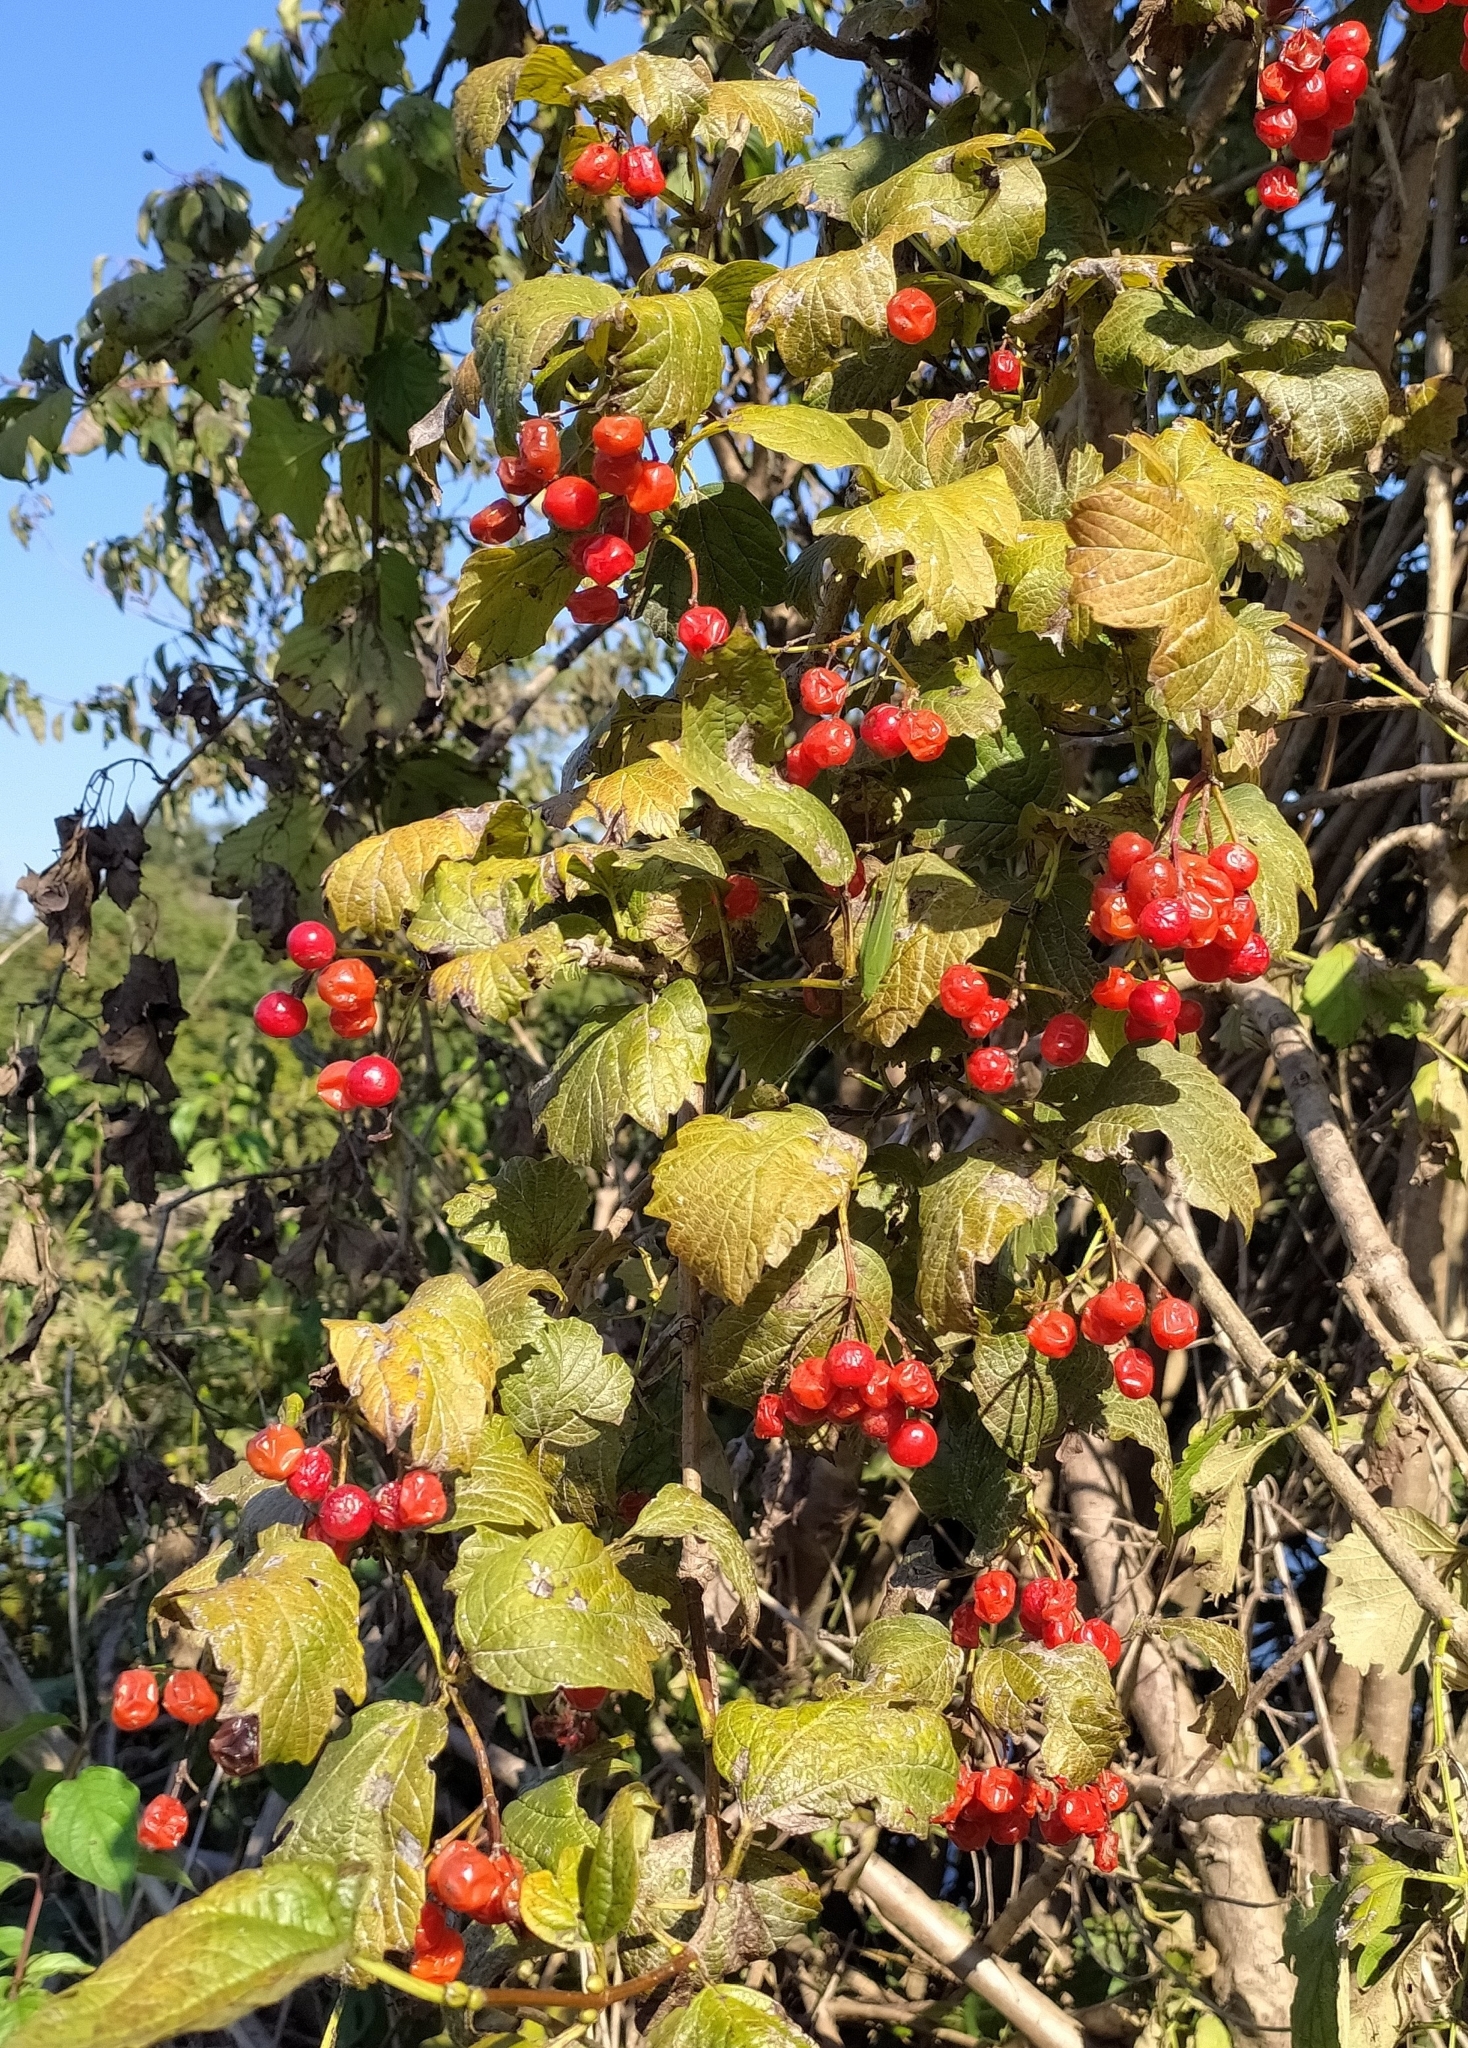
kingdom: Plantae
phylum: Tracheophyta
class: Magnoliopsida
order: Dipsacales
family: Viburnaceae
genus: Viburnum
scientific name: Viburnum opulus
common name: Guelder-rose
